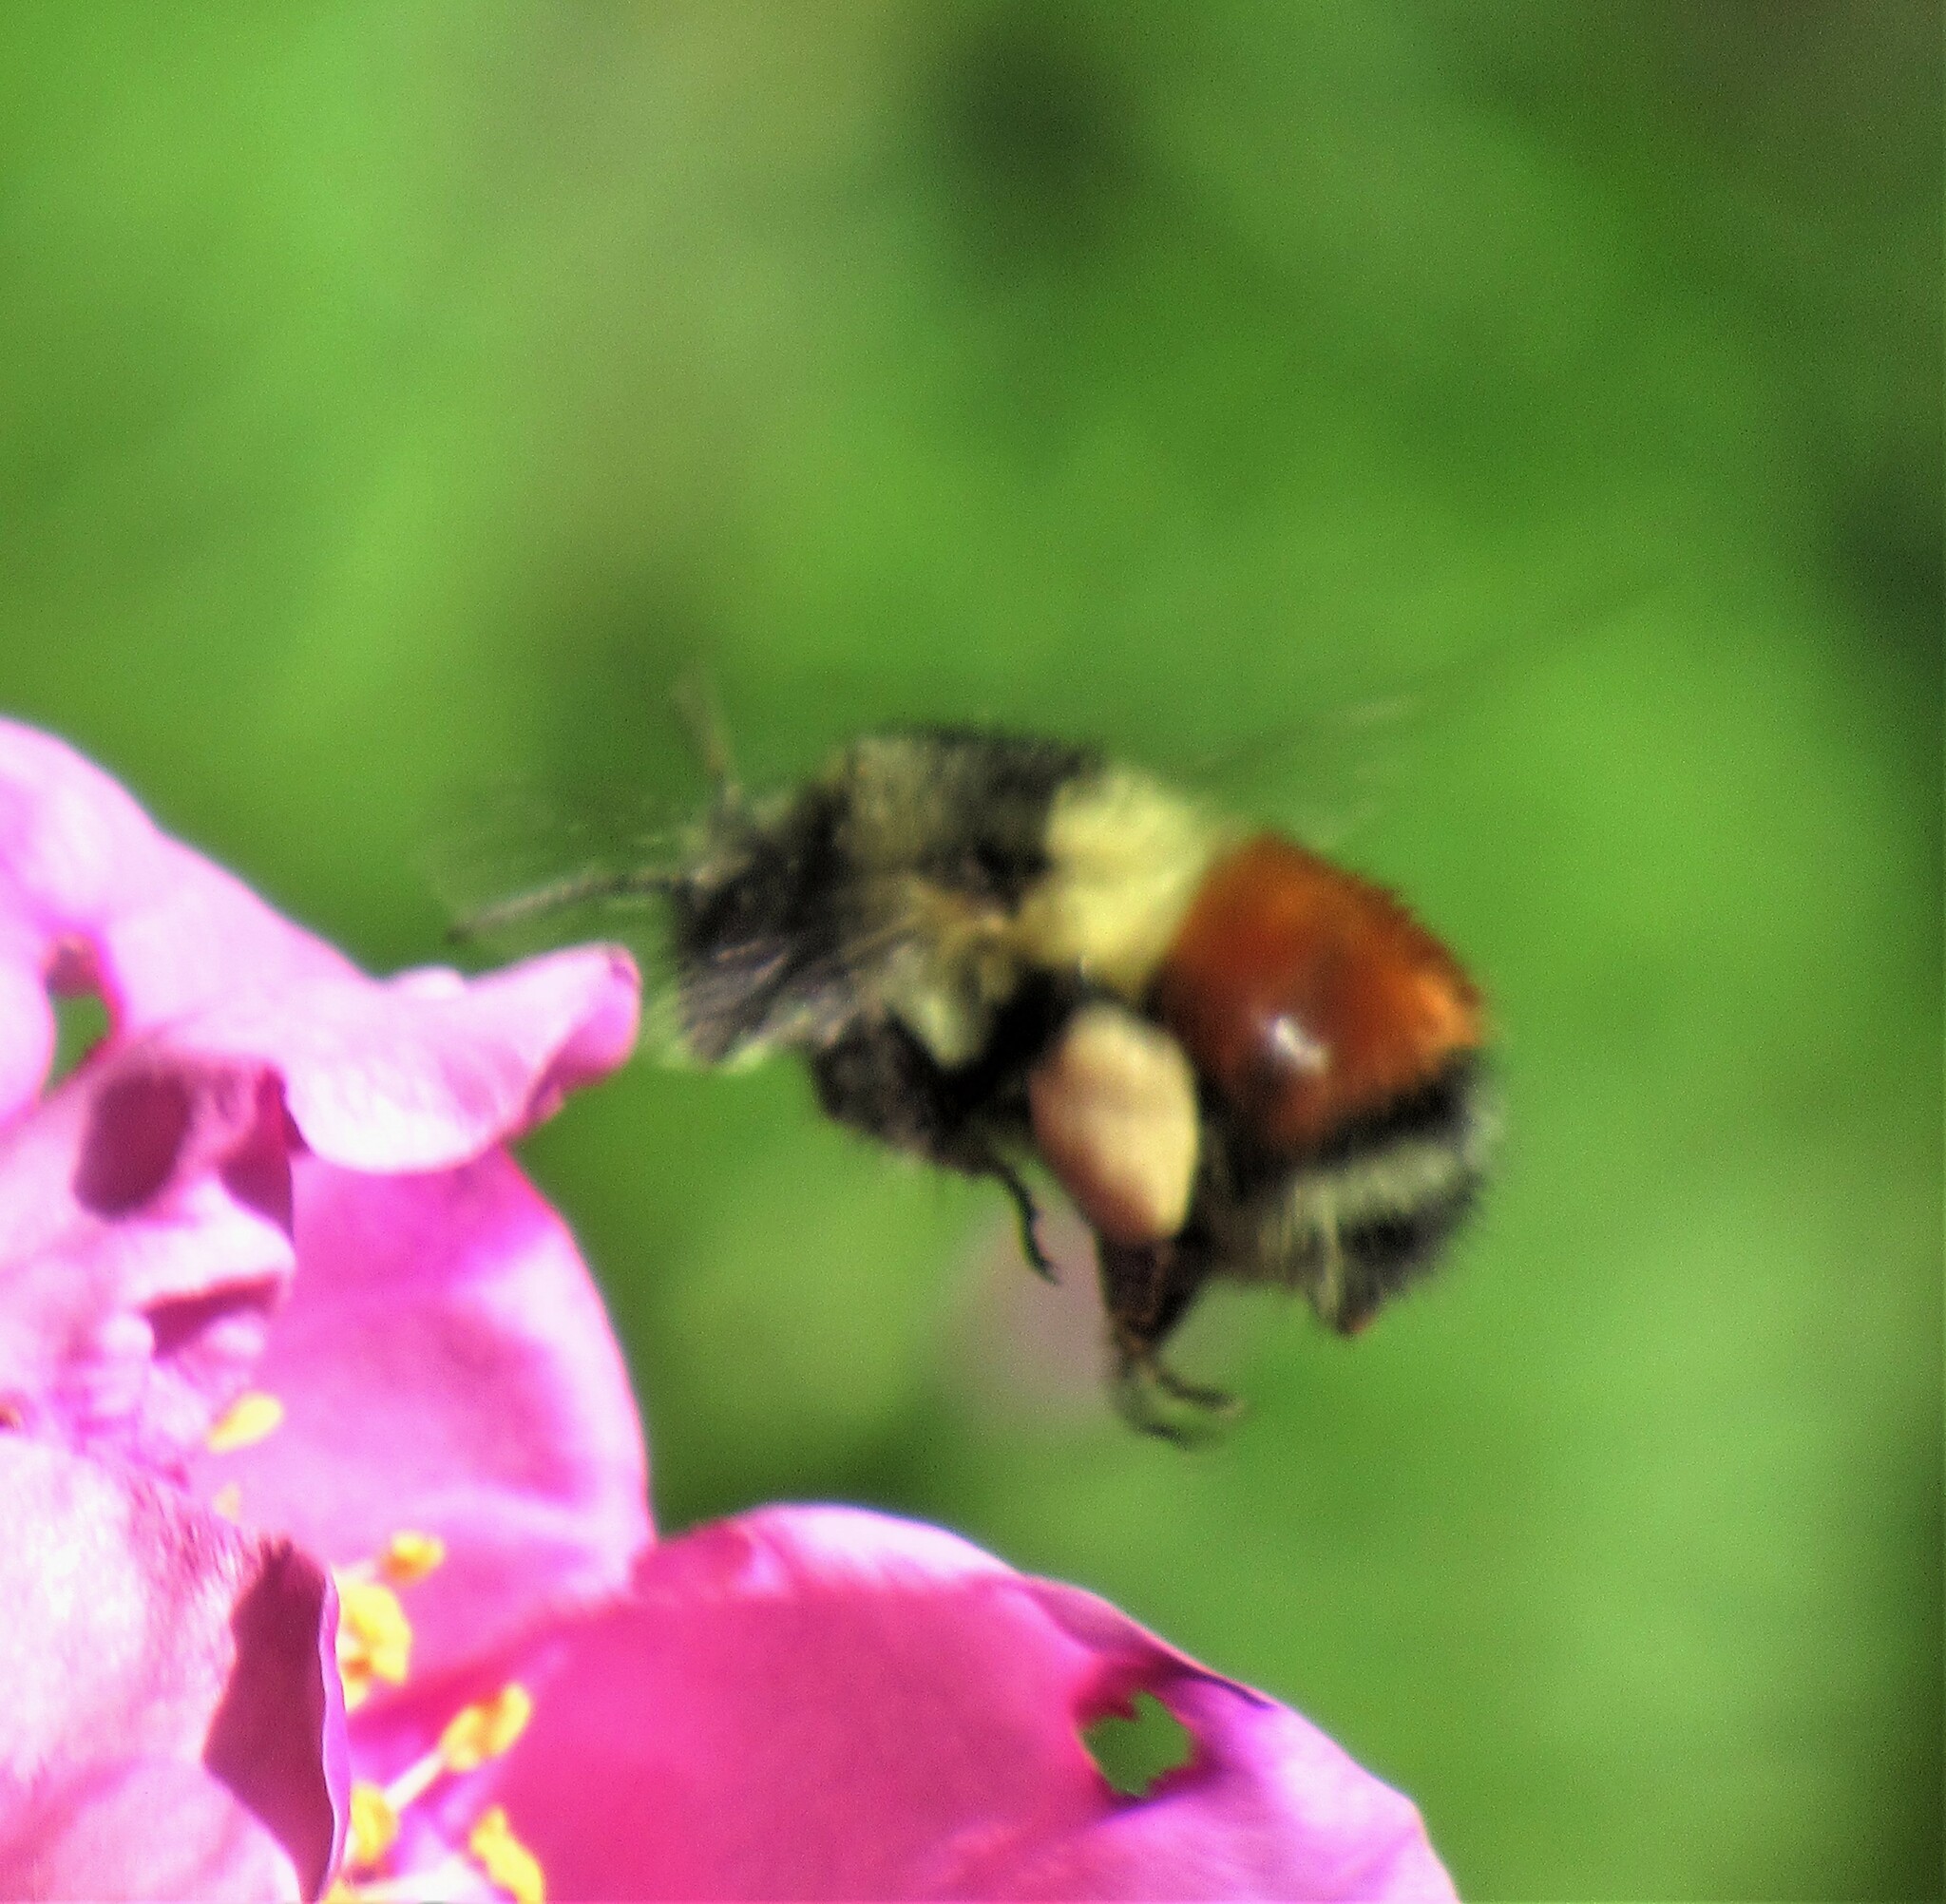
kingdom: Animalia
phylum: Arthropoda
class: Insecta
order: Hymenoptera
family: Apidae
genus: Bombus
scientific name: Bombus melanopygus
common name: Black tail bumble bee
